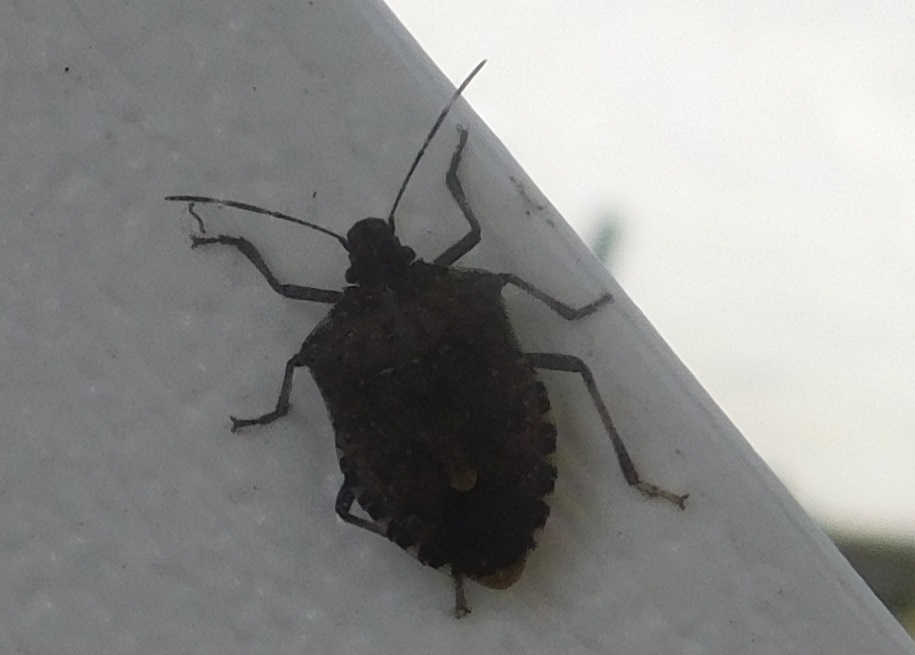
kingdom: Animalia
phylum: Arthropoda
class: Insecta
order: Hemiptera
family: Pentatomidae
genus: Halyomorpha
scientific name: Halyomorpha halys
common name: Brown marmorated stink bug
